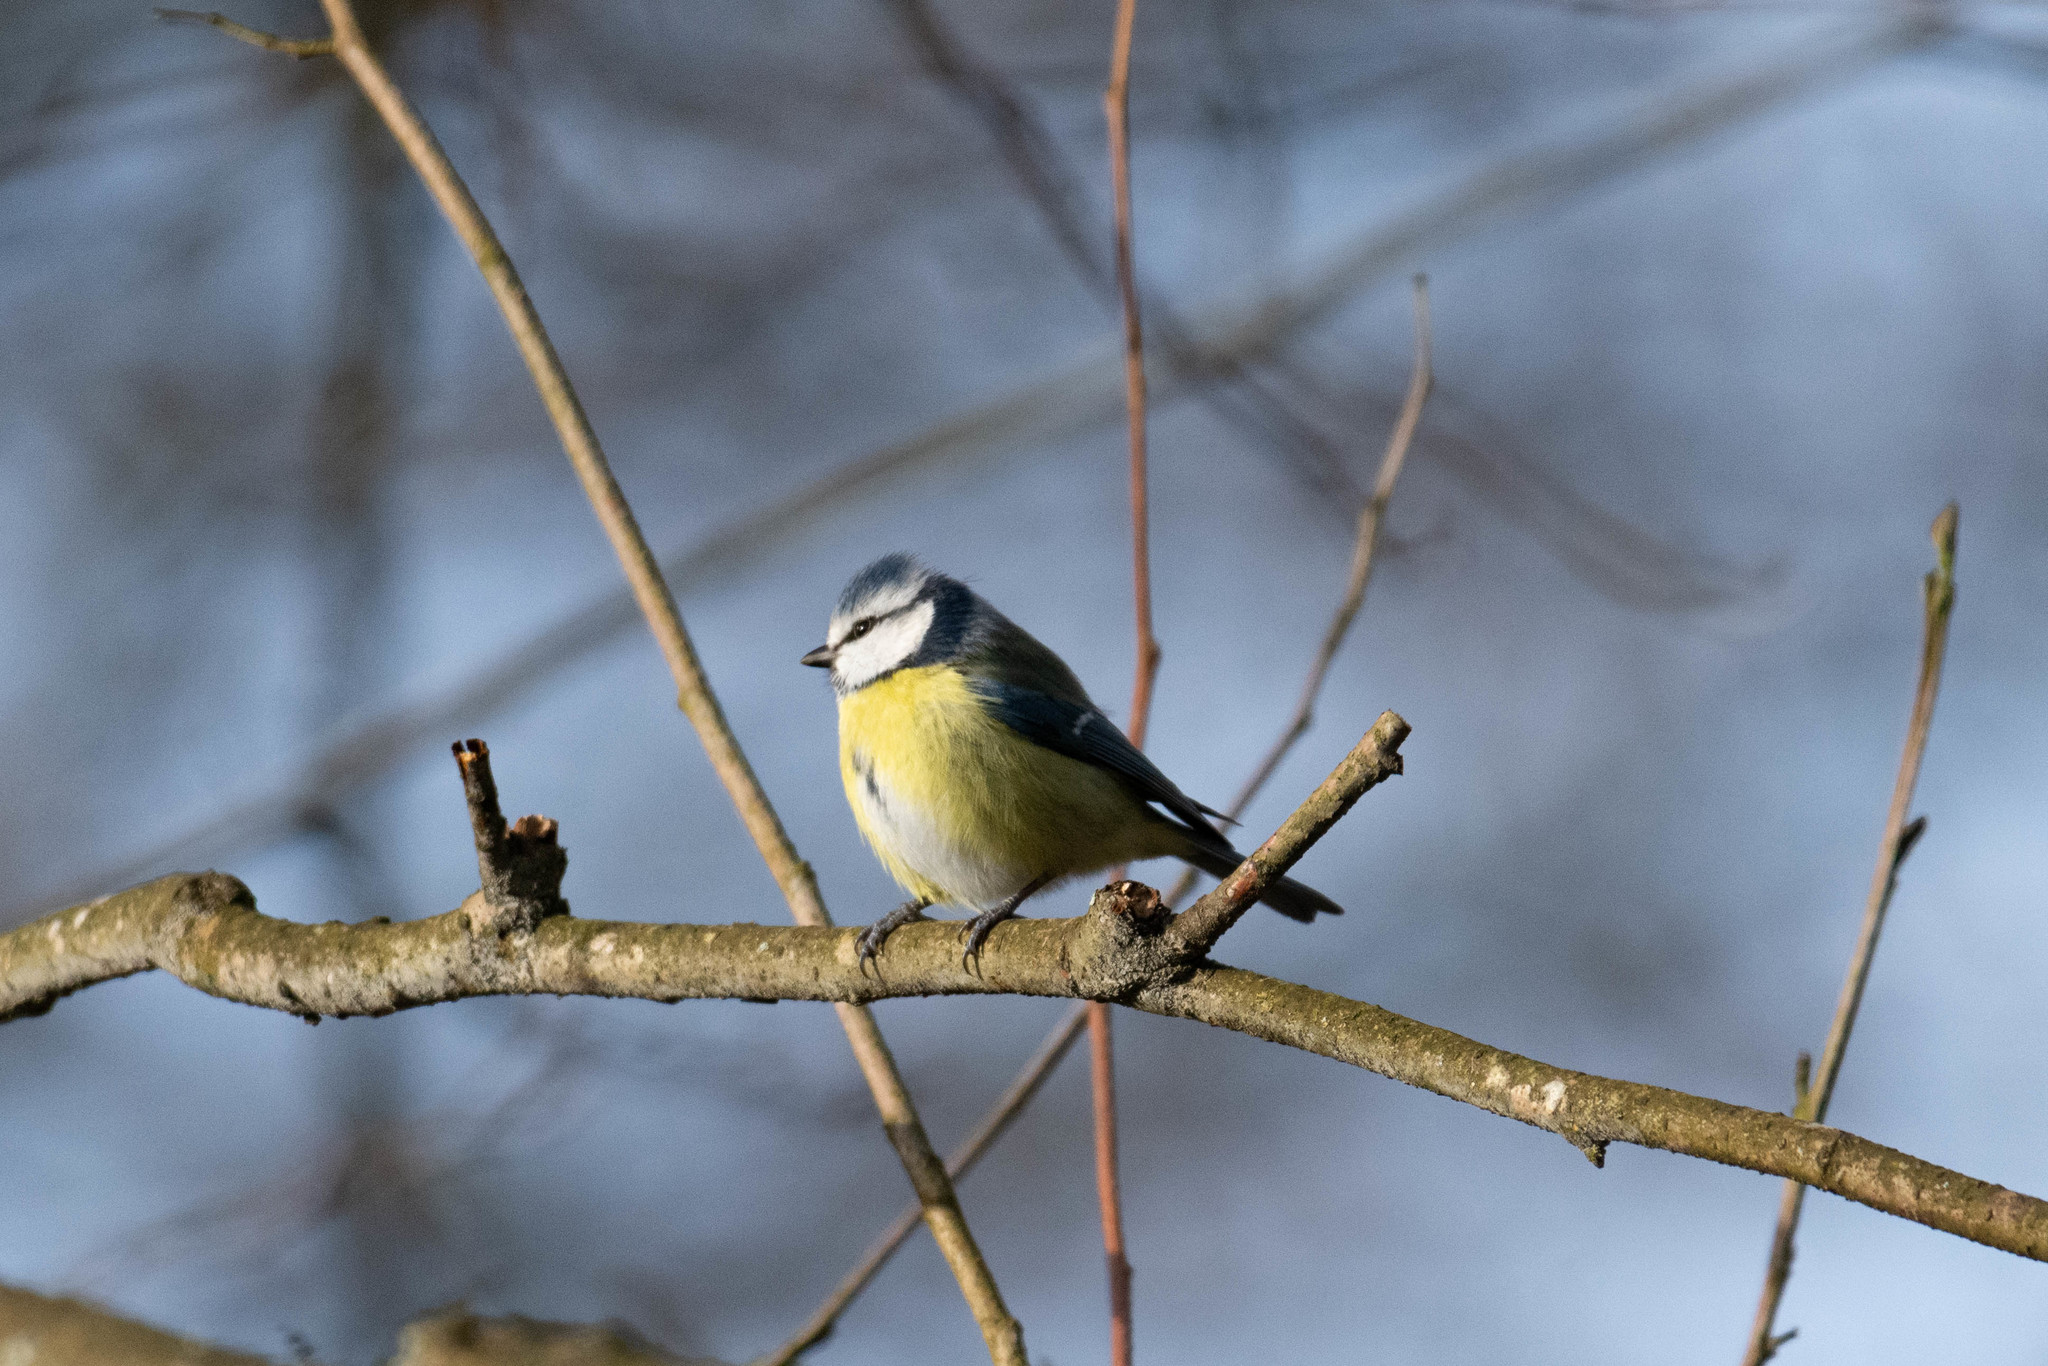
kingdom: Animalia
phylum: Chordata
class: Aves
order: Passeriformes
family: Paridae
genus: Cyanistes
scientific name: Cyanistes caeruleus
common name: Eurasian blue tit
